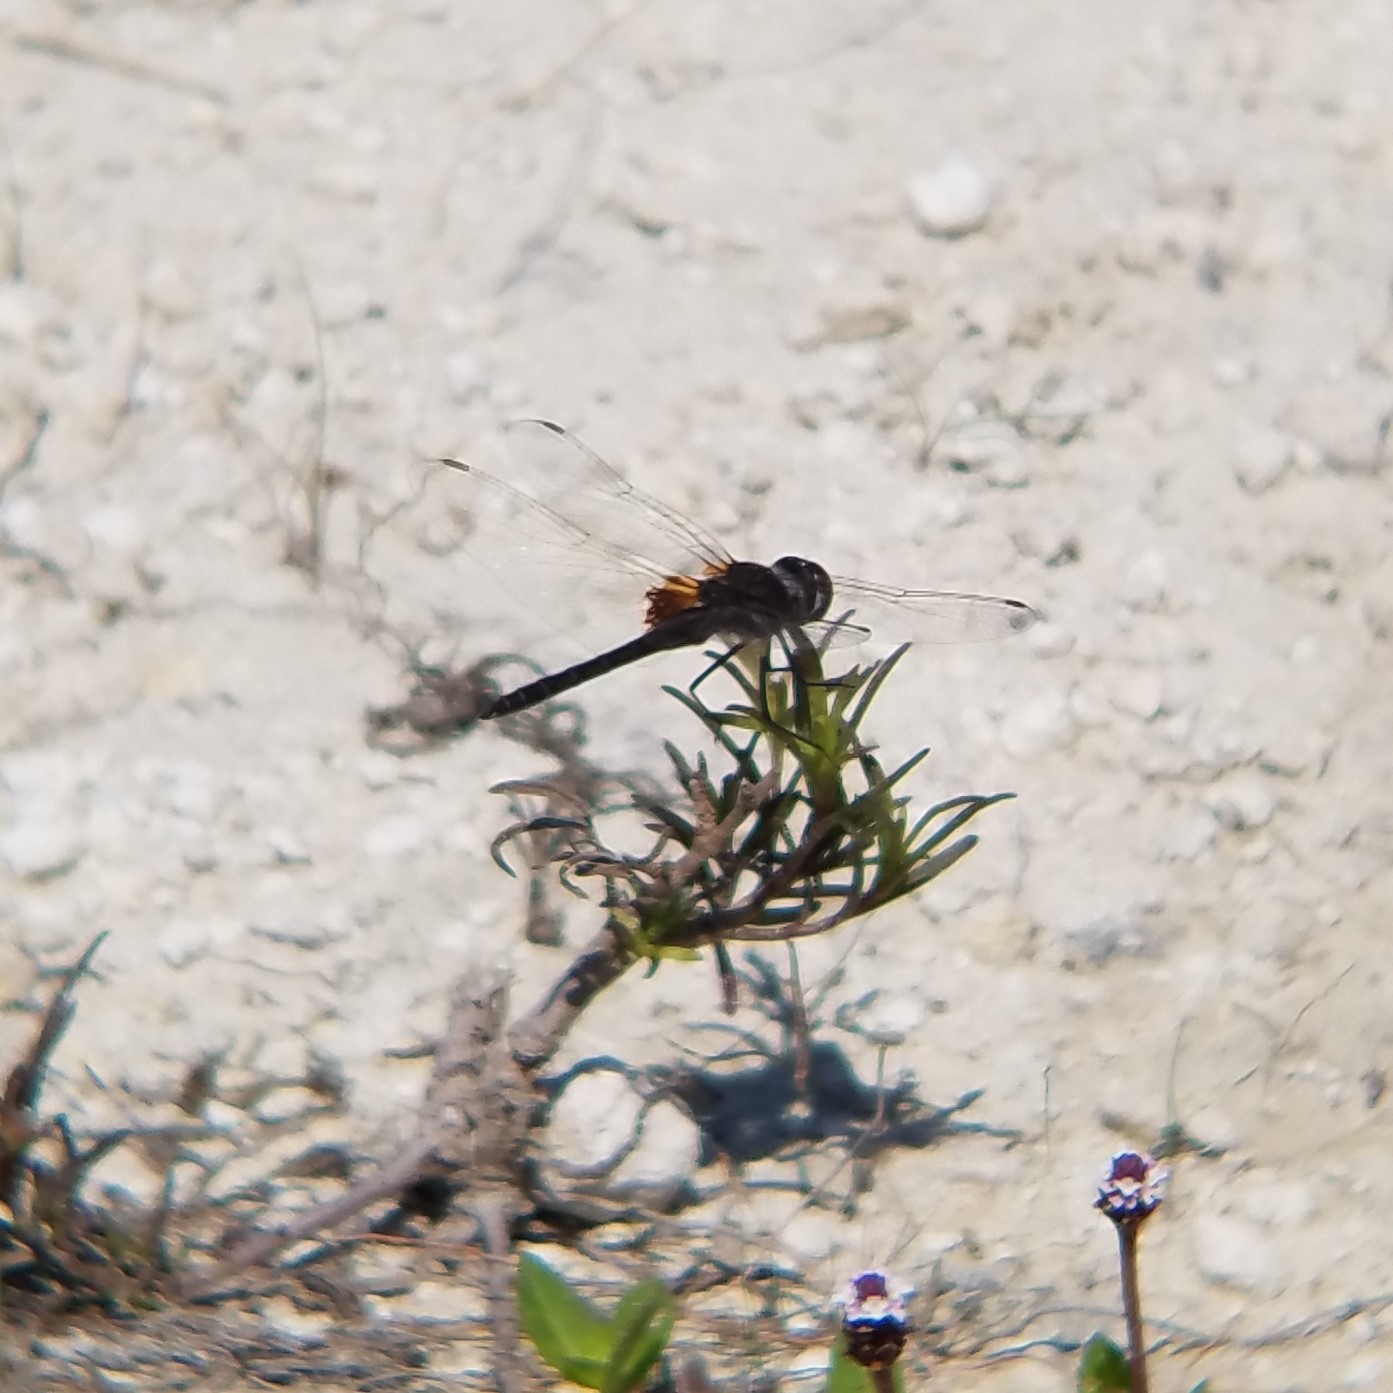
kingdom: Animalia
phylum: Arthropoda
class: Insecta
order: Odonata
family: Libellulidae
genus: Macrodiplax
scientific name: Macrodiplax balteata
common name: Marl pennant
